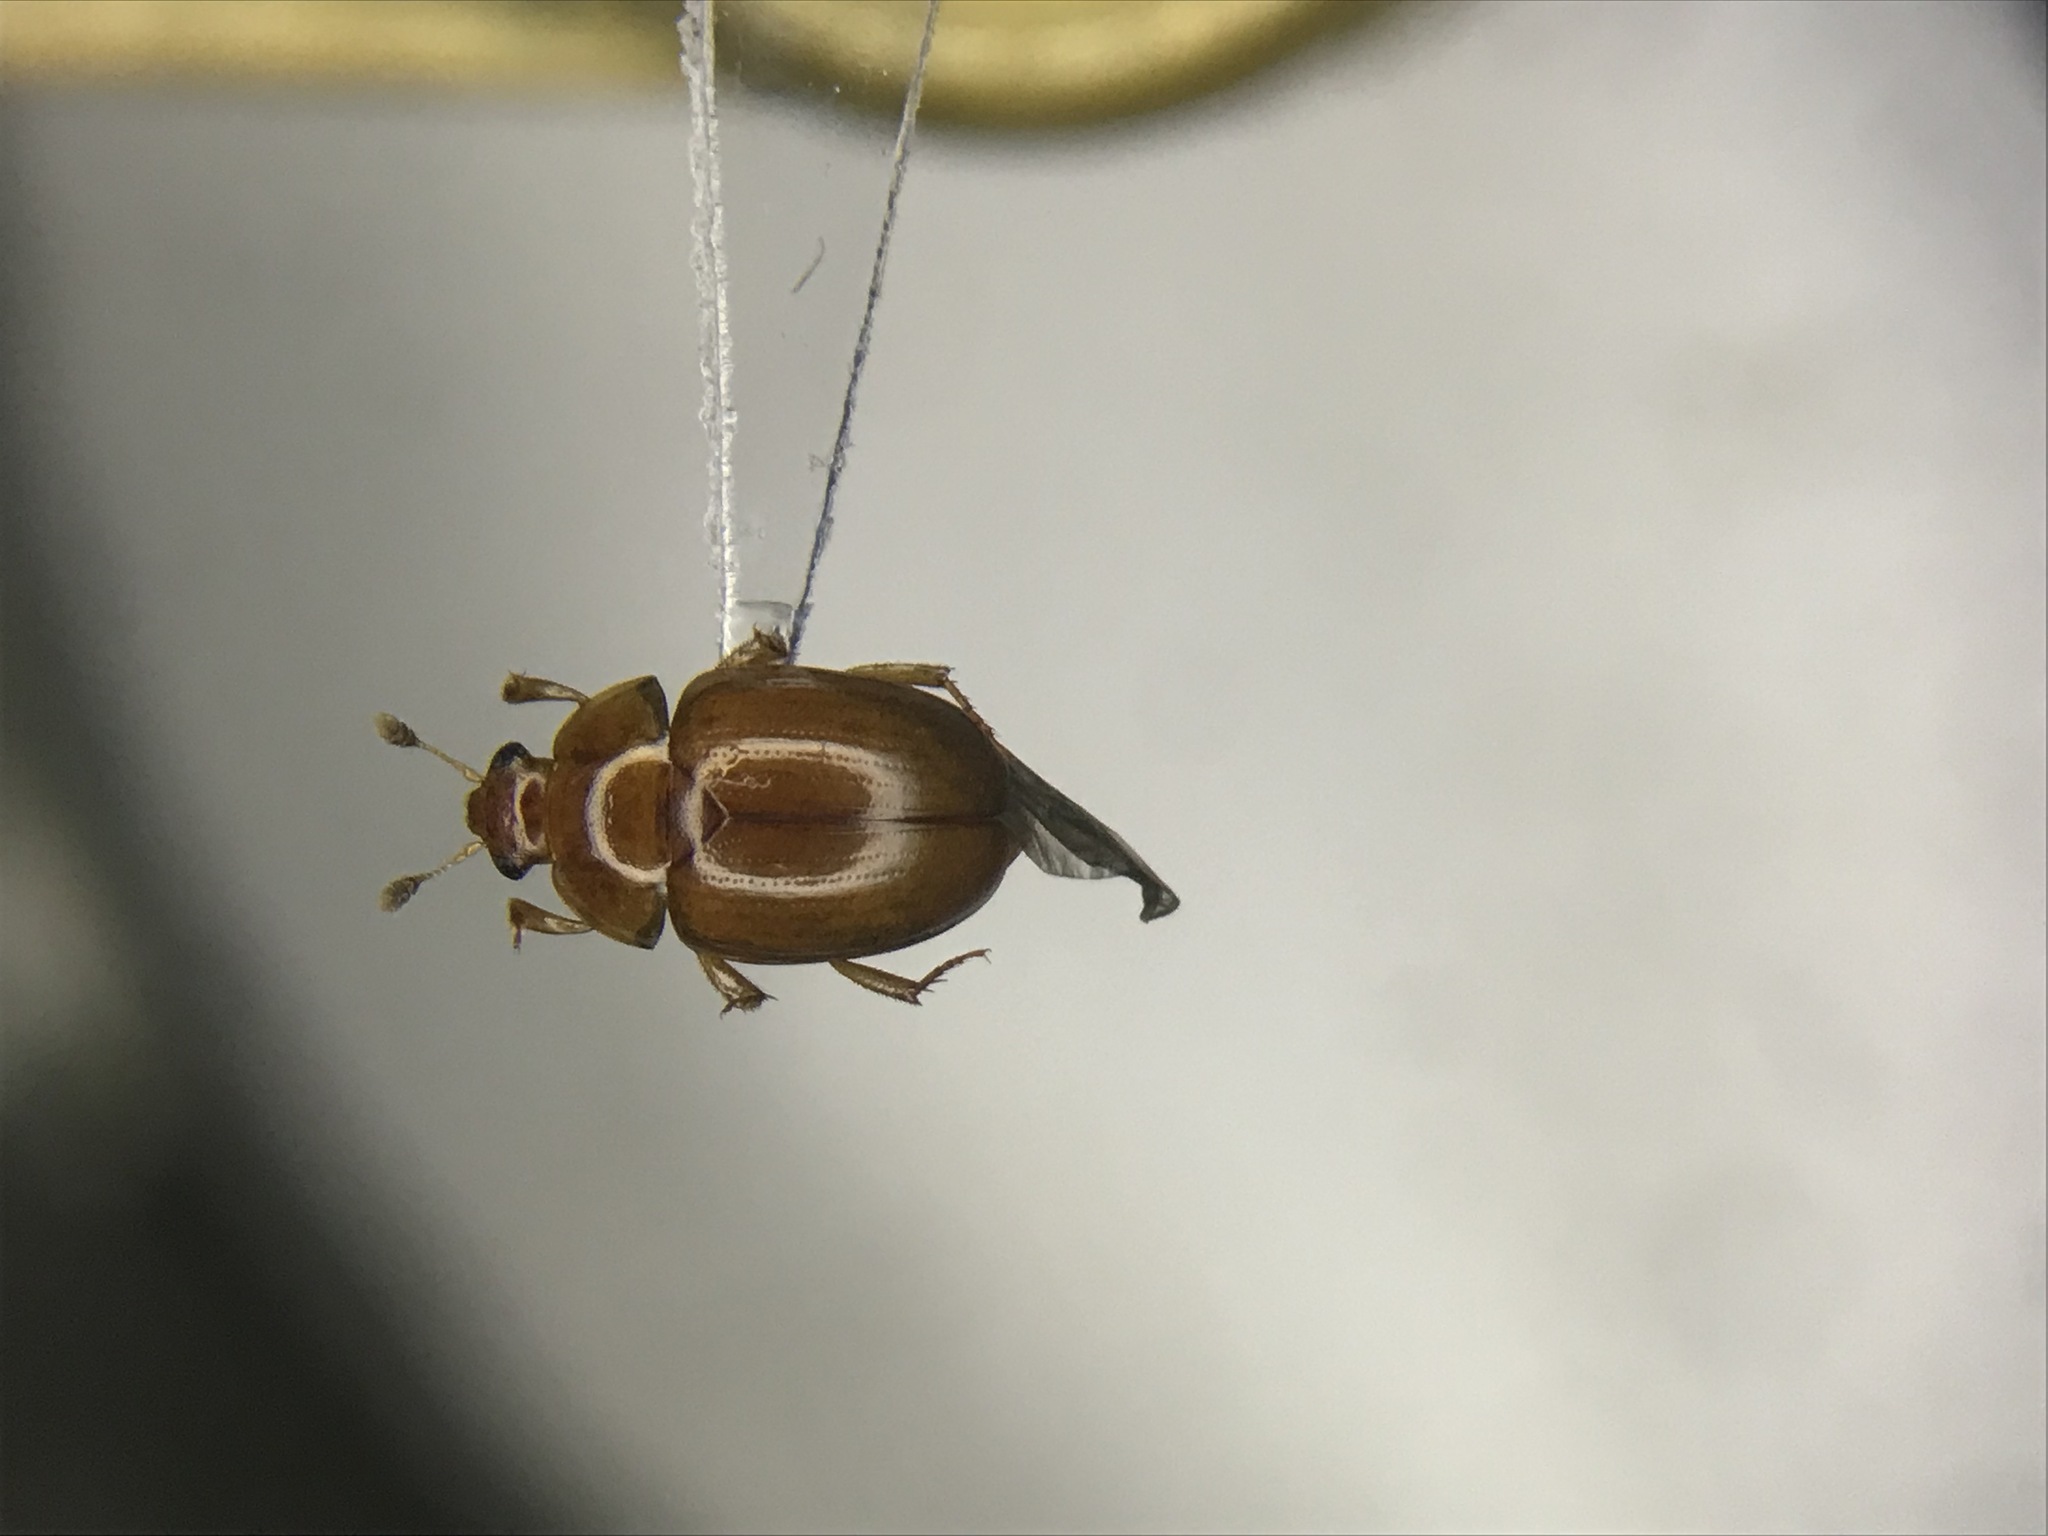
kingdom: Animalia
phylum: Arthropoda
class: Insecta
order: Coleoptera
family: Nitidulidae
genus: Pallodes
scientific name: Pallodes pallidus
